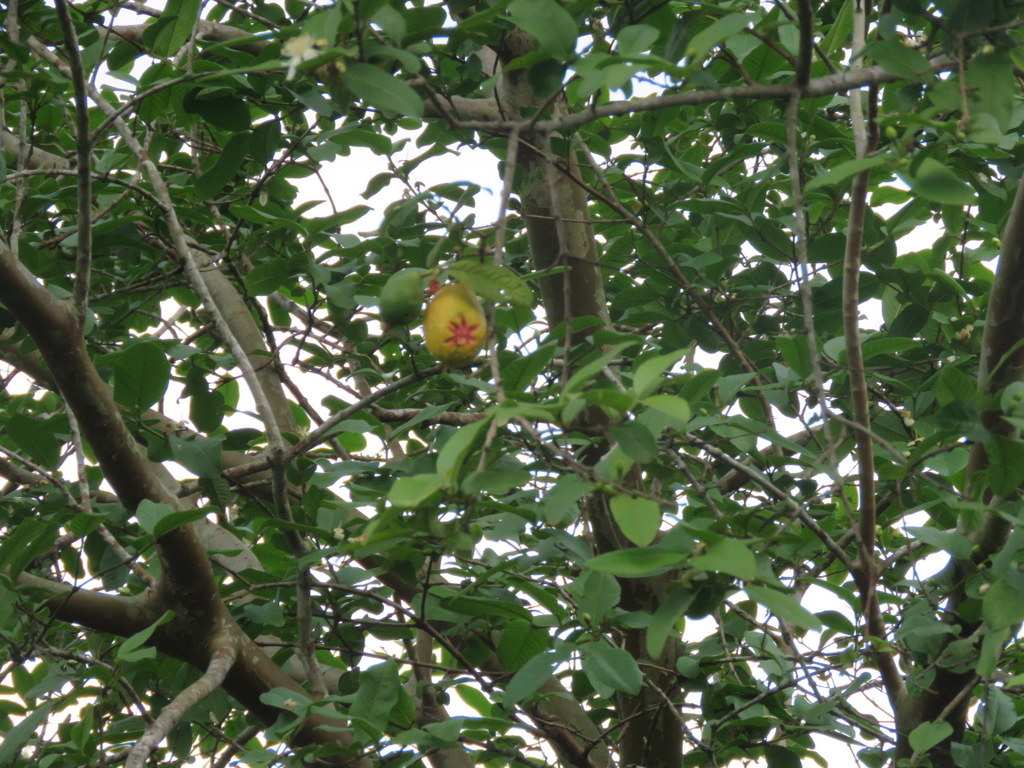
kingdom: Plantae
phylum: Tracheophyta
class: Magnoliopsida
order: Myrtales
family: Myrtaceae
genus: Psidium
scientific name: Psidium guajava
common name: Guava
